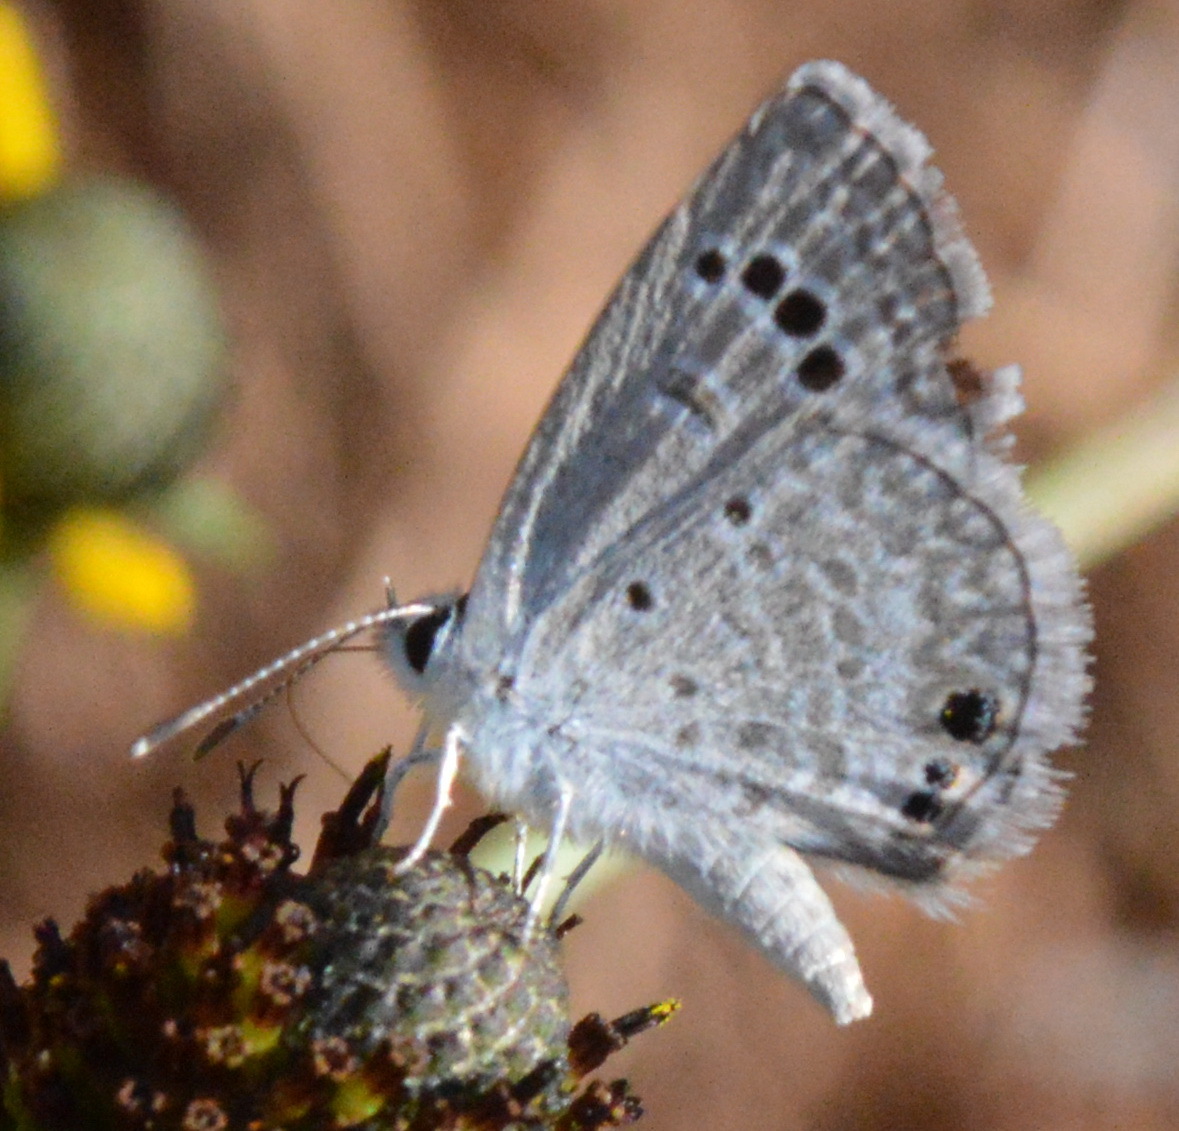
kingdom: Animalia
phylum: Arthropoda
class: Insecta
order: Lepidoptera
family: Lycaenidae
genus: Echinargus
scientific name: Echinargus isola
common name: Reakirt's blue
